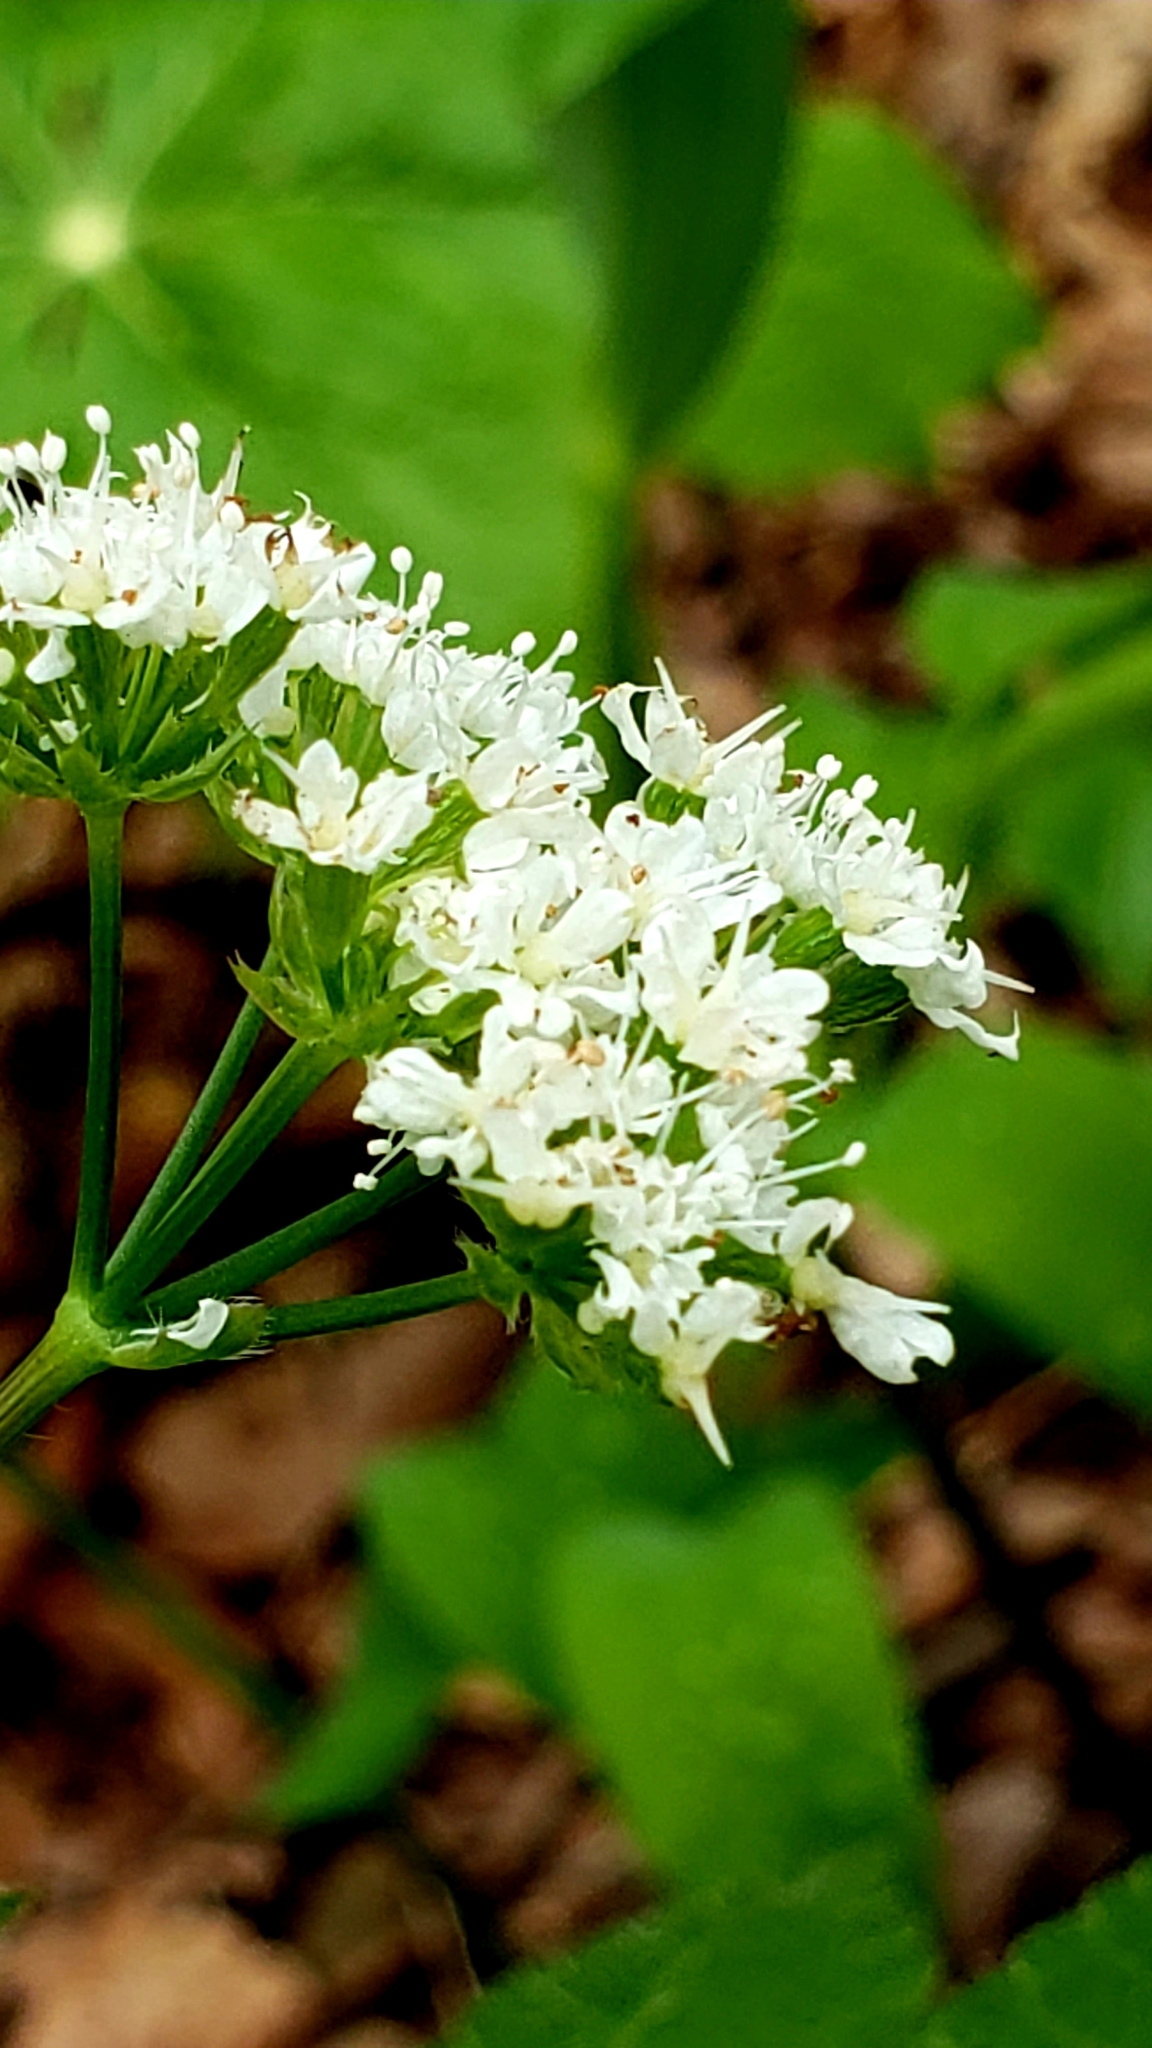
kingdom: Plantae
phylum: Tracheophyta
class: Magnoliopsida
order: Apiales
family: Apiaceae
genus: Osmorhiza
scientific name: Osmorhiza longistylis
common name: Smooth sweet cicely
